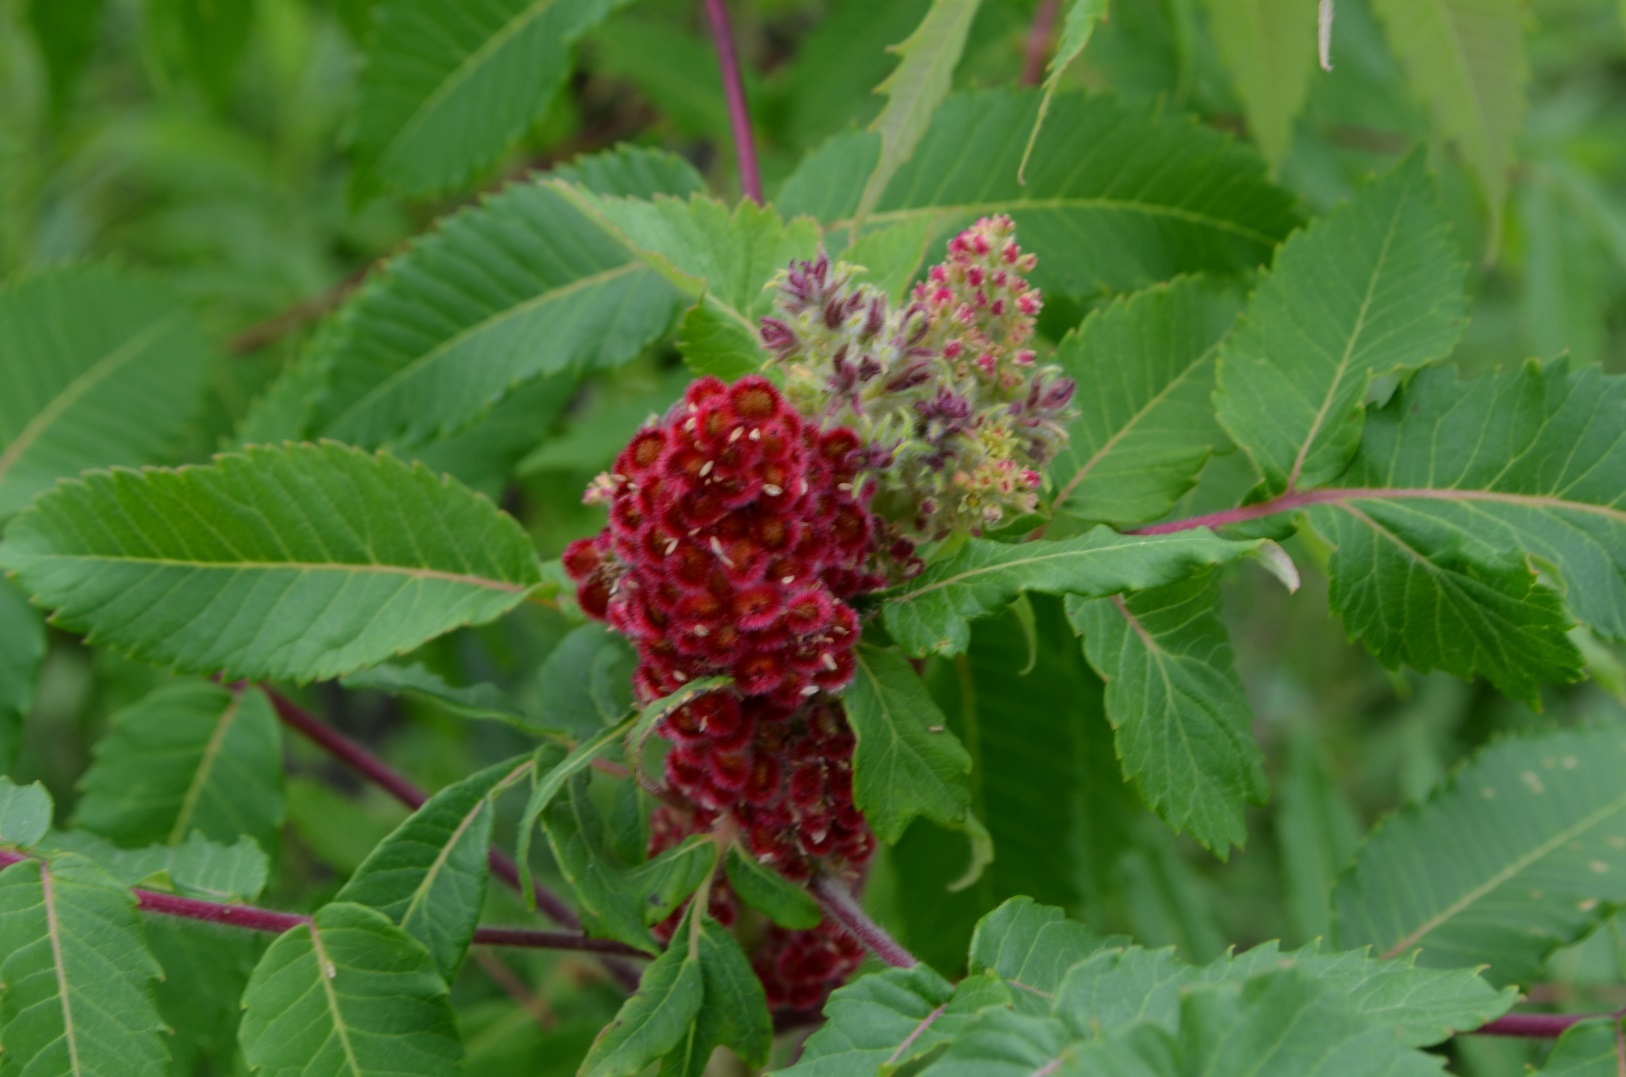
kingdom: Plantae
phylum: Tracheophyta
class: Magnoliopsida
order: Sapindales
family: Anacardiaceae
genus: Rhus
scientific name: Rhus typhina
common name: Staghorn sumac
